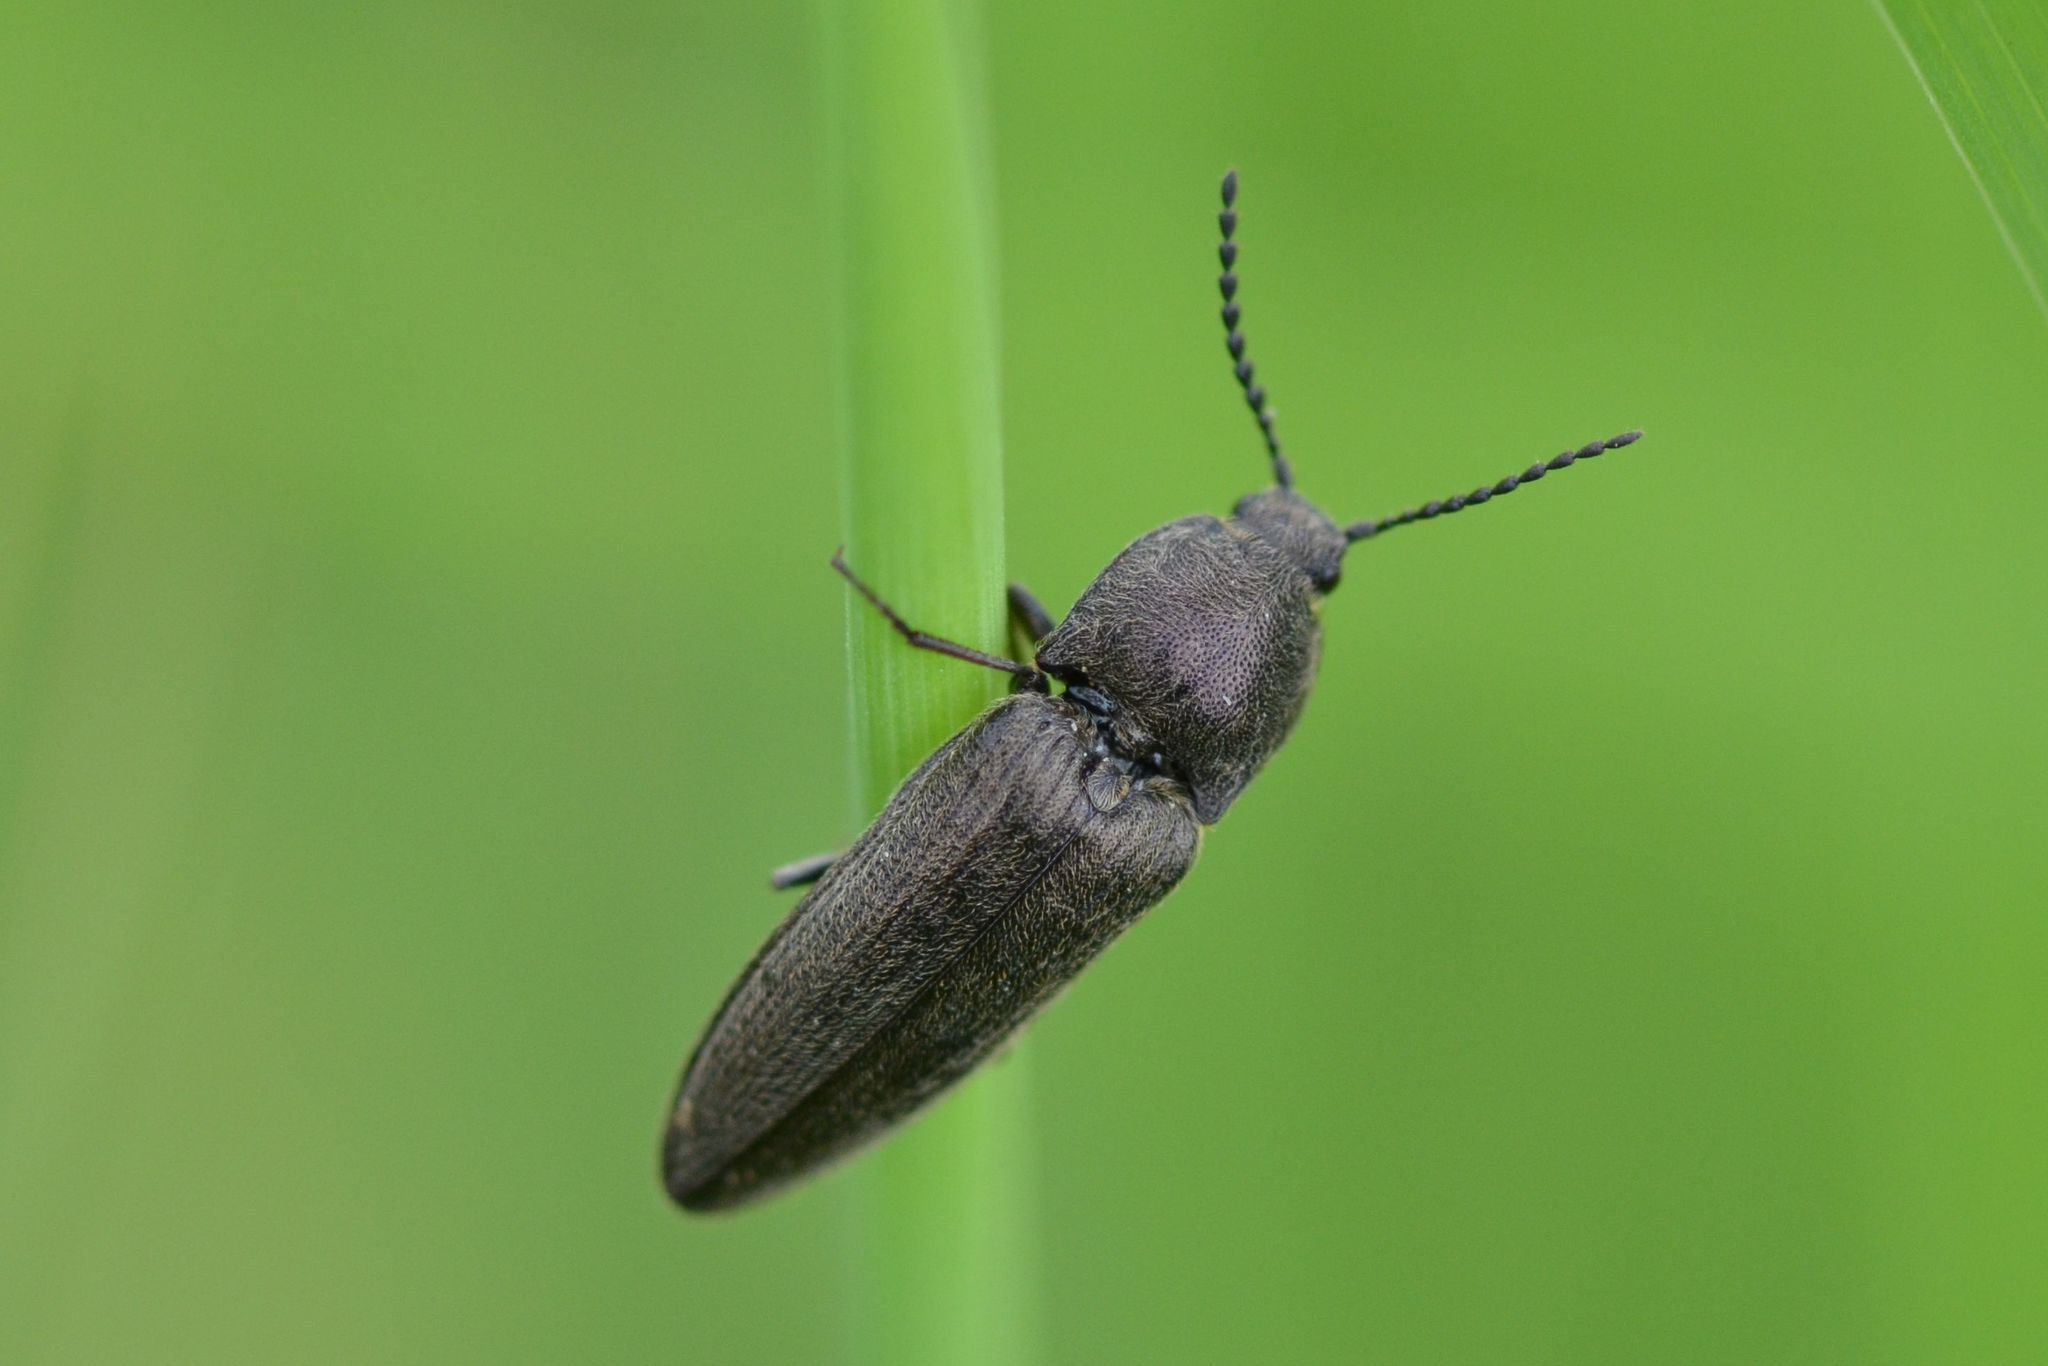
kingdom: Animalia
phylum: Arthropoda
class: Insecta
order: Coleoptera
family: Elateridae
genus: Cidnopus
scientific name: Cidnopus pilosus
